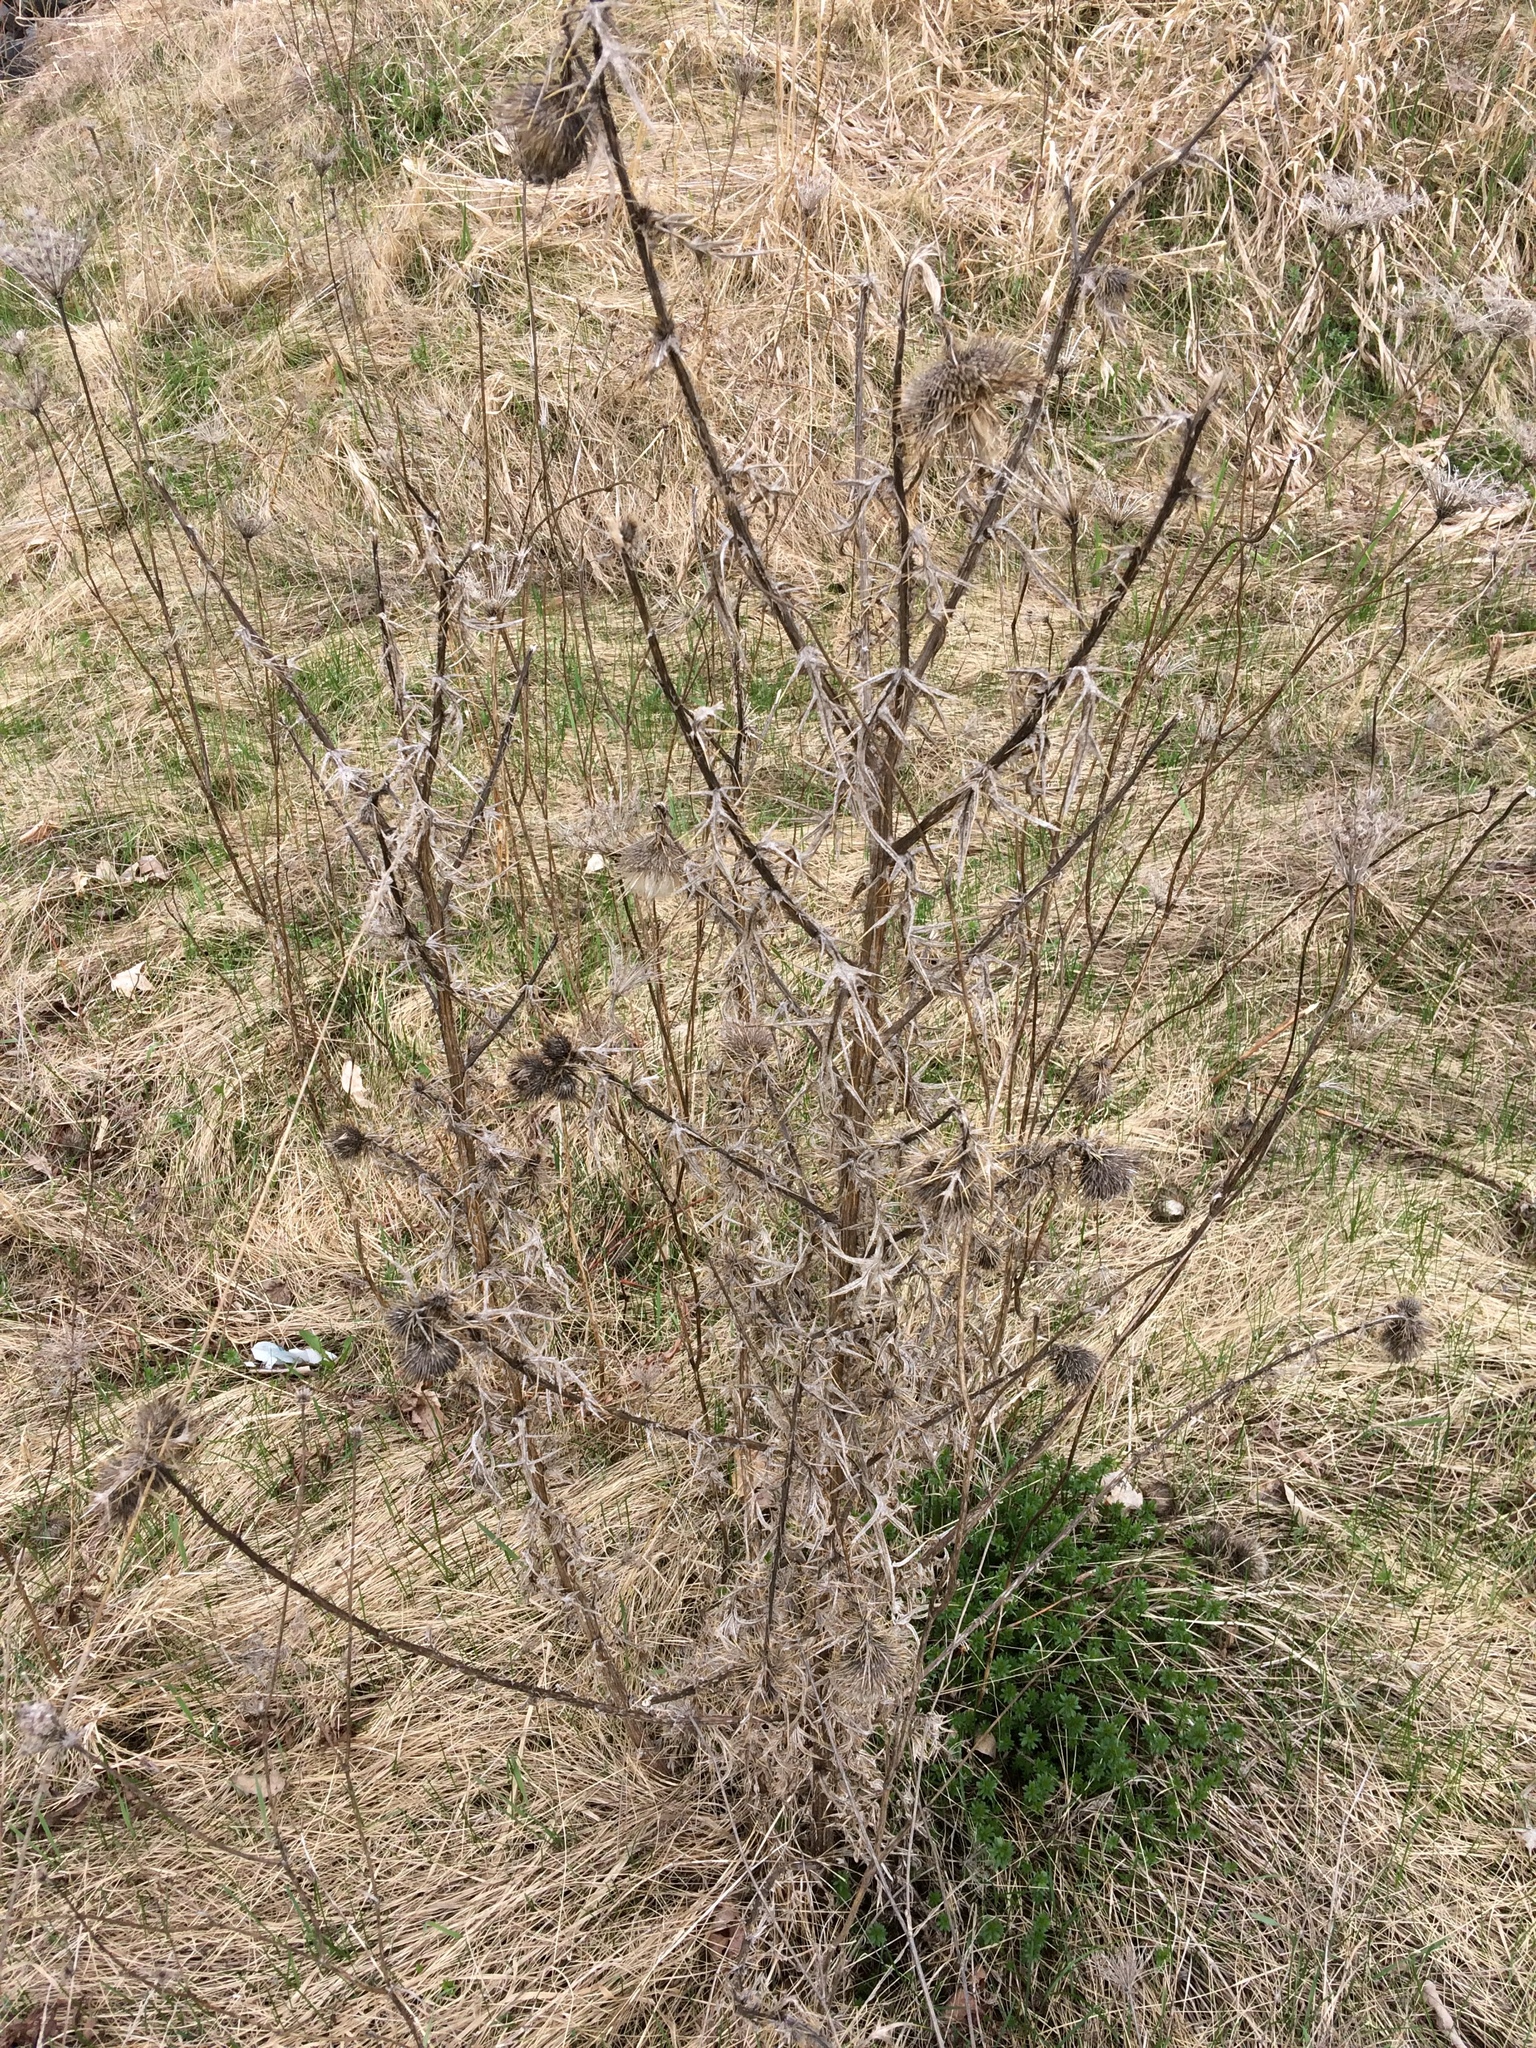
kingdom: Plantae
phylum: Tracheophyta
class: Magnoliopsida
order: Asterales
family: Asteraceae
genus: Cirsium
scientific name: Cirsium vulgare
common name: Bull thistle
